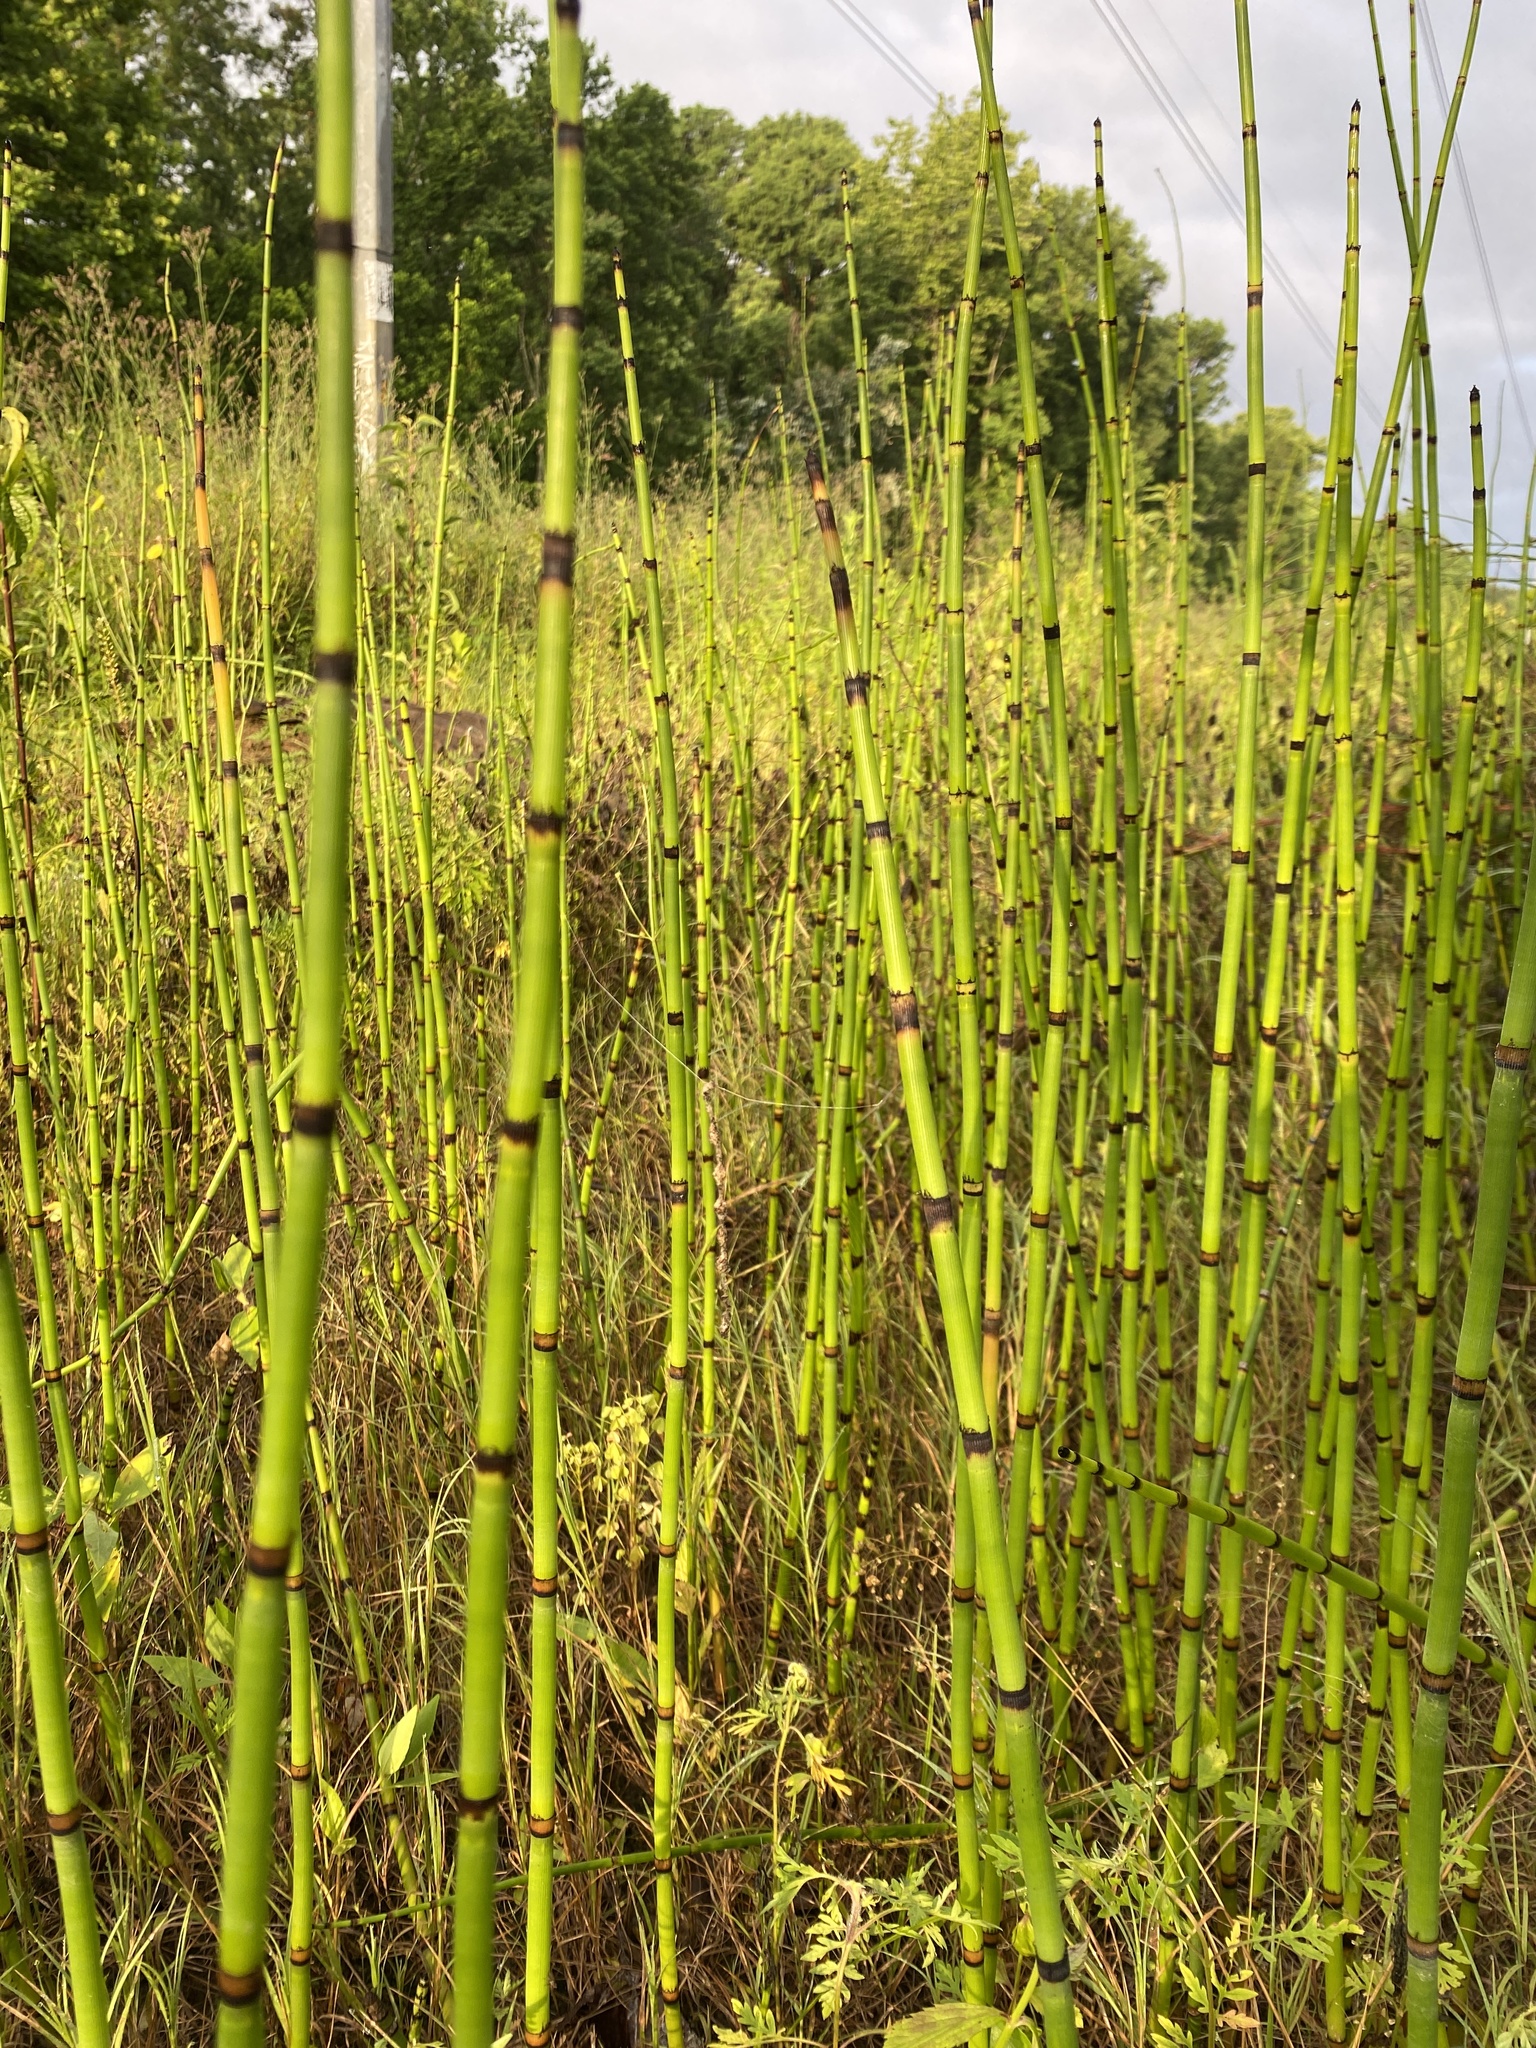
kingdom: Plantae
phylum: Tracheophyta
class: Polypodiopsida
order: Equisetales
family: Equisetaceae
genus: Equisetum
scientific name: Equisetum hyemale
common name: Rough horsetail
